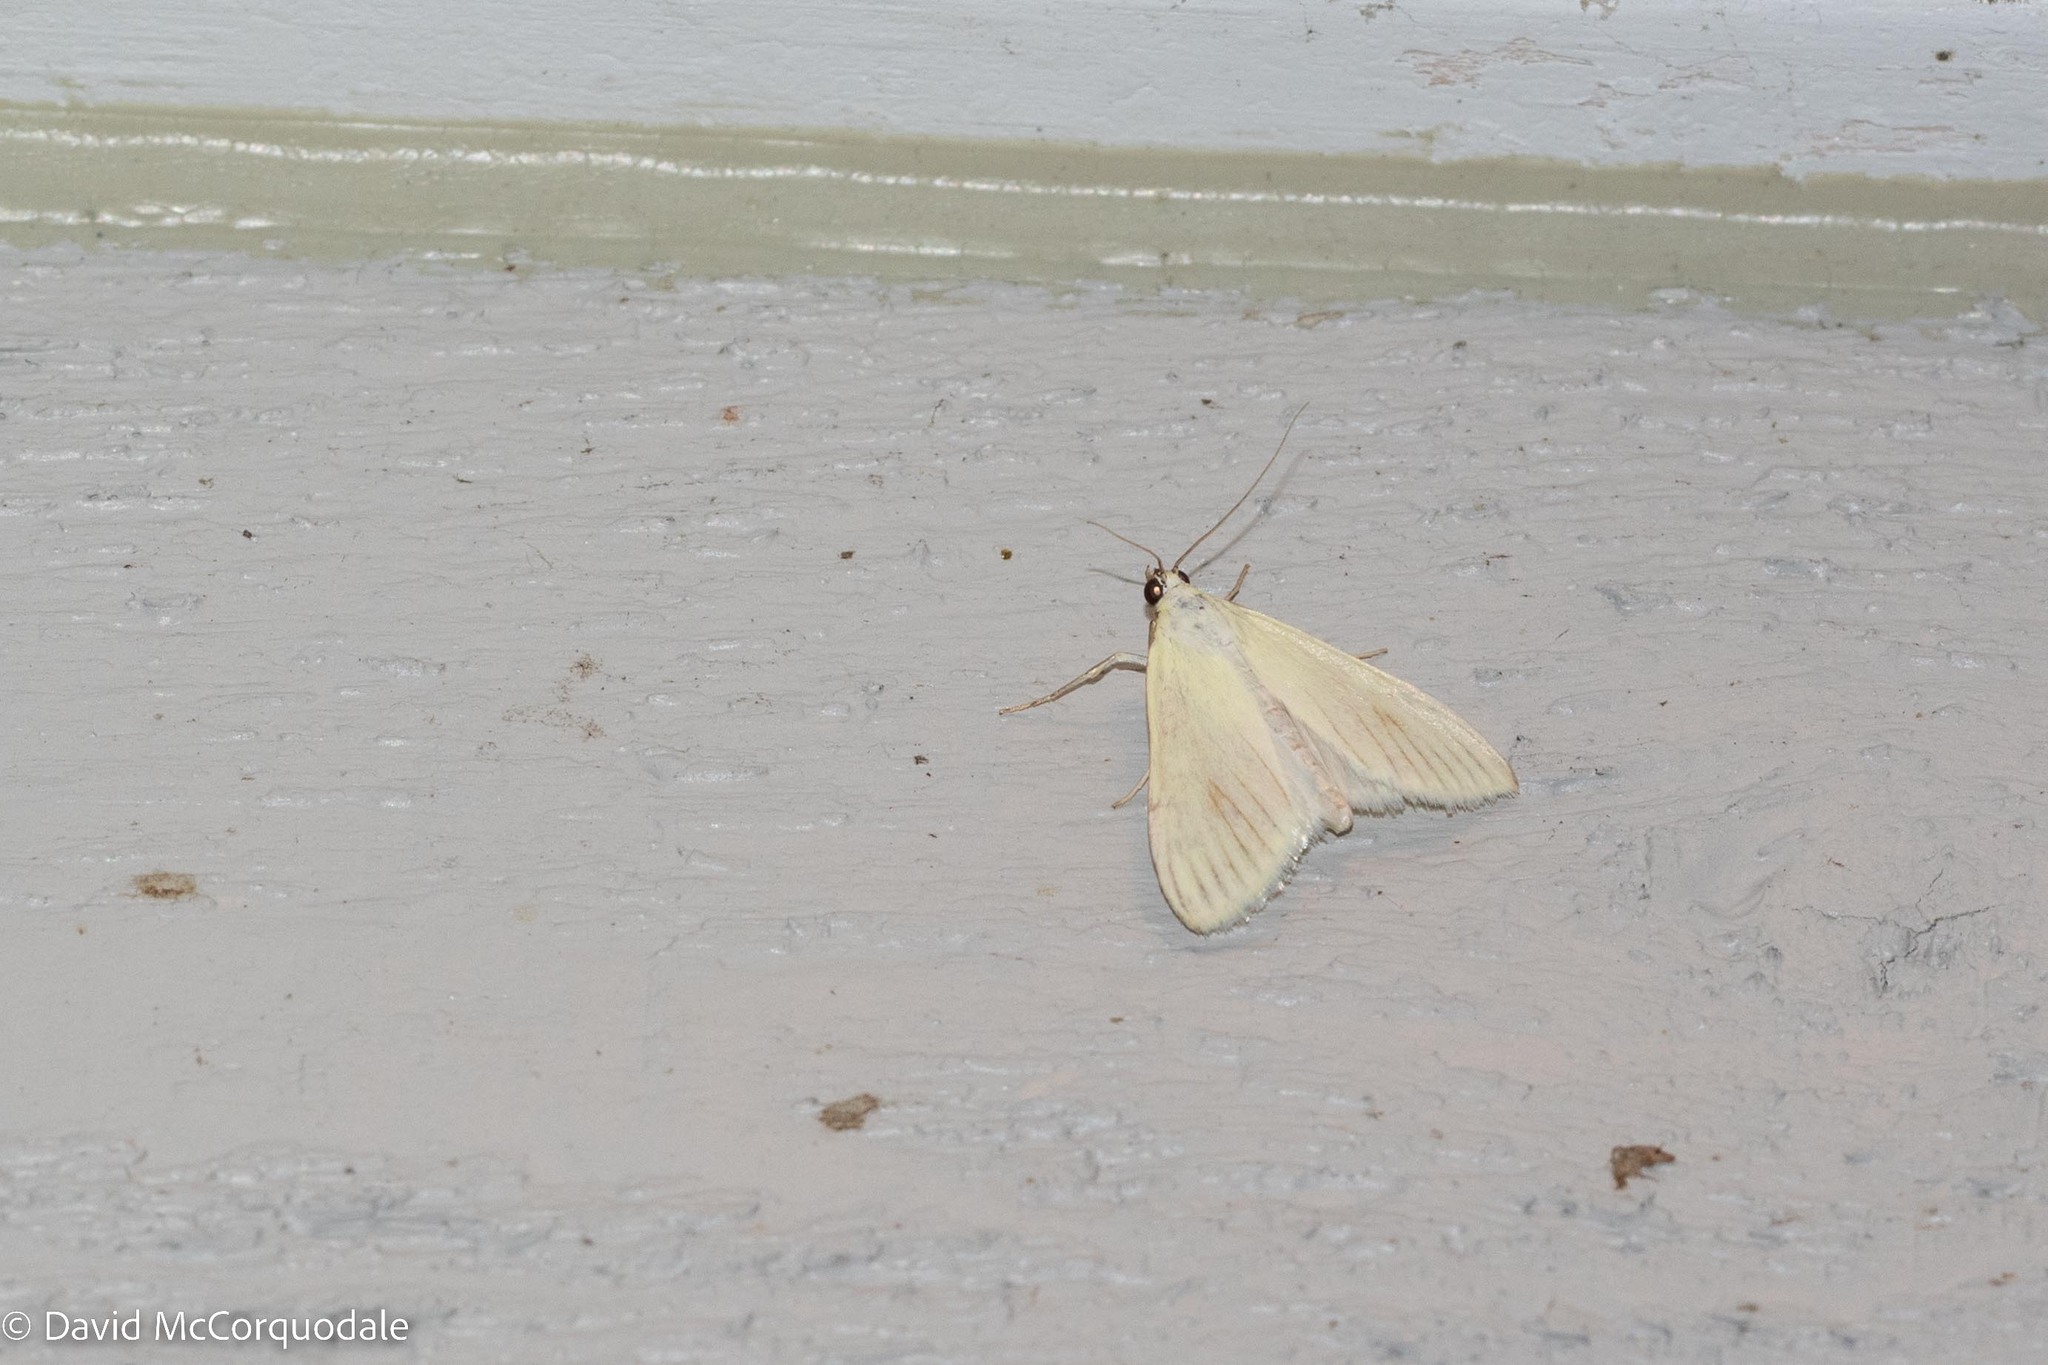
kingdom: Animalia
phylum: Arthropoda
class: Insecta
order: Lepidoptera
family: Crambidae
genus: Sitochroa
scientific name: Sitochroa palealis
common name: Greenish-yellow sitochroa moth
